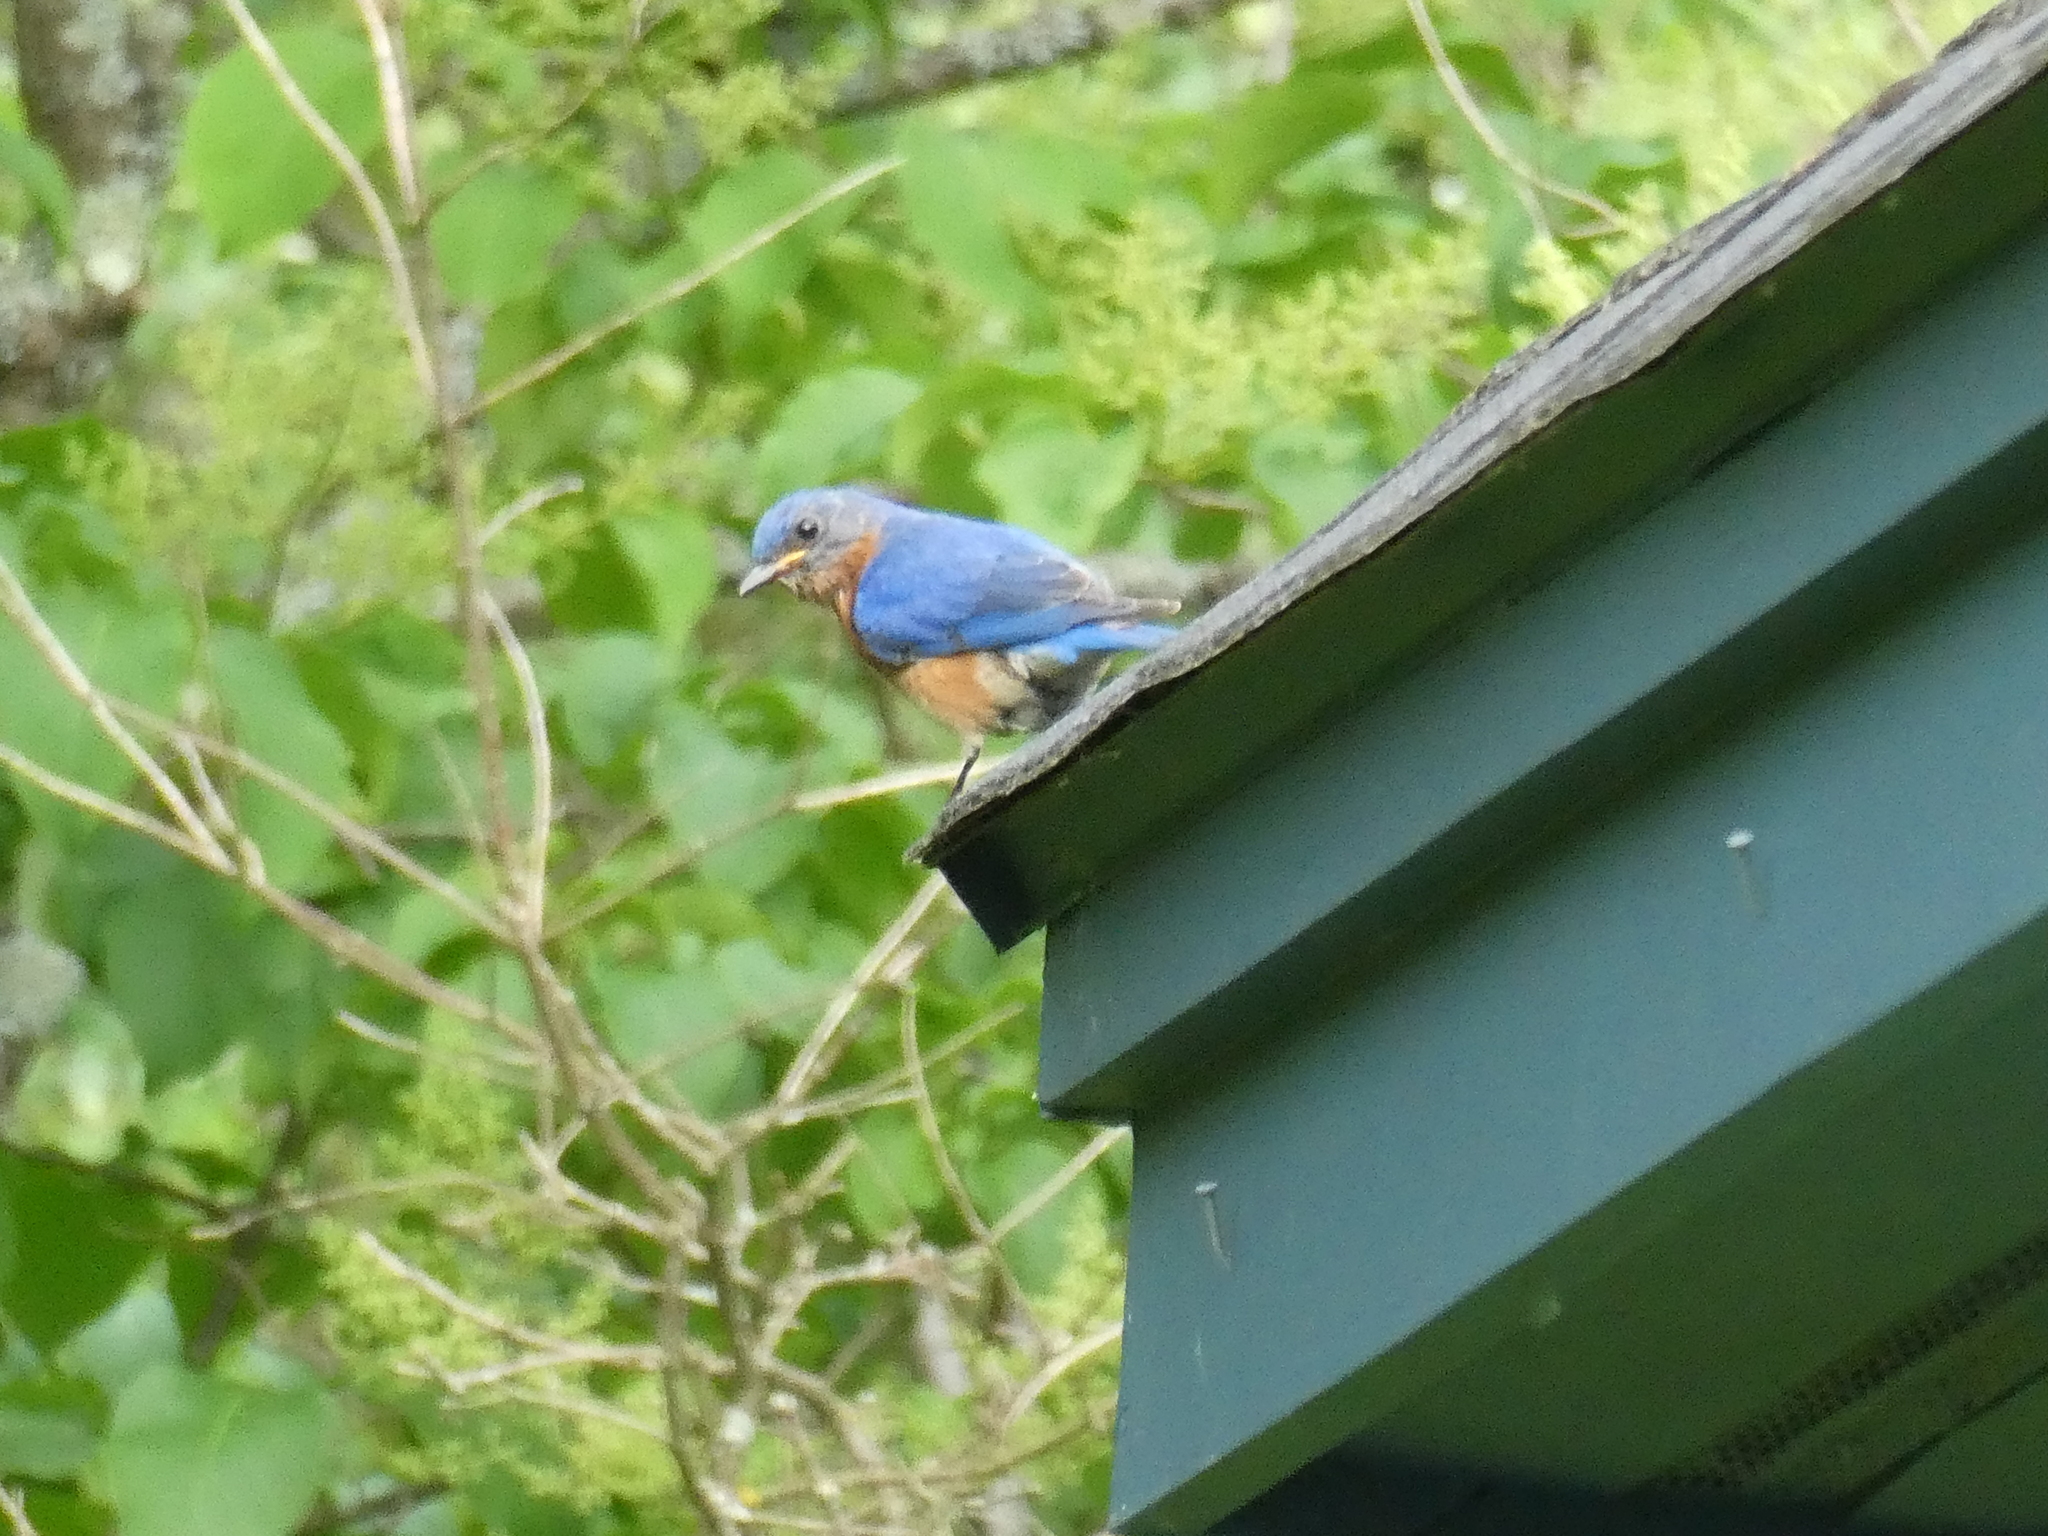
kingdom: Animalia
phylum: Chordata
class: Aves
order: Passeriformes
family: Turdidae
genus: Sialia
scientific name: Sialia sialis
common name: Eastern bluebird
